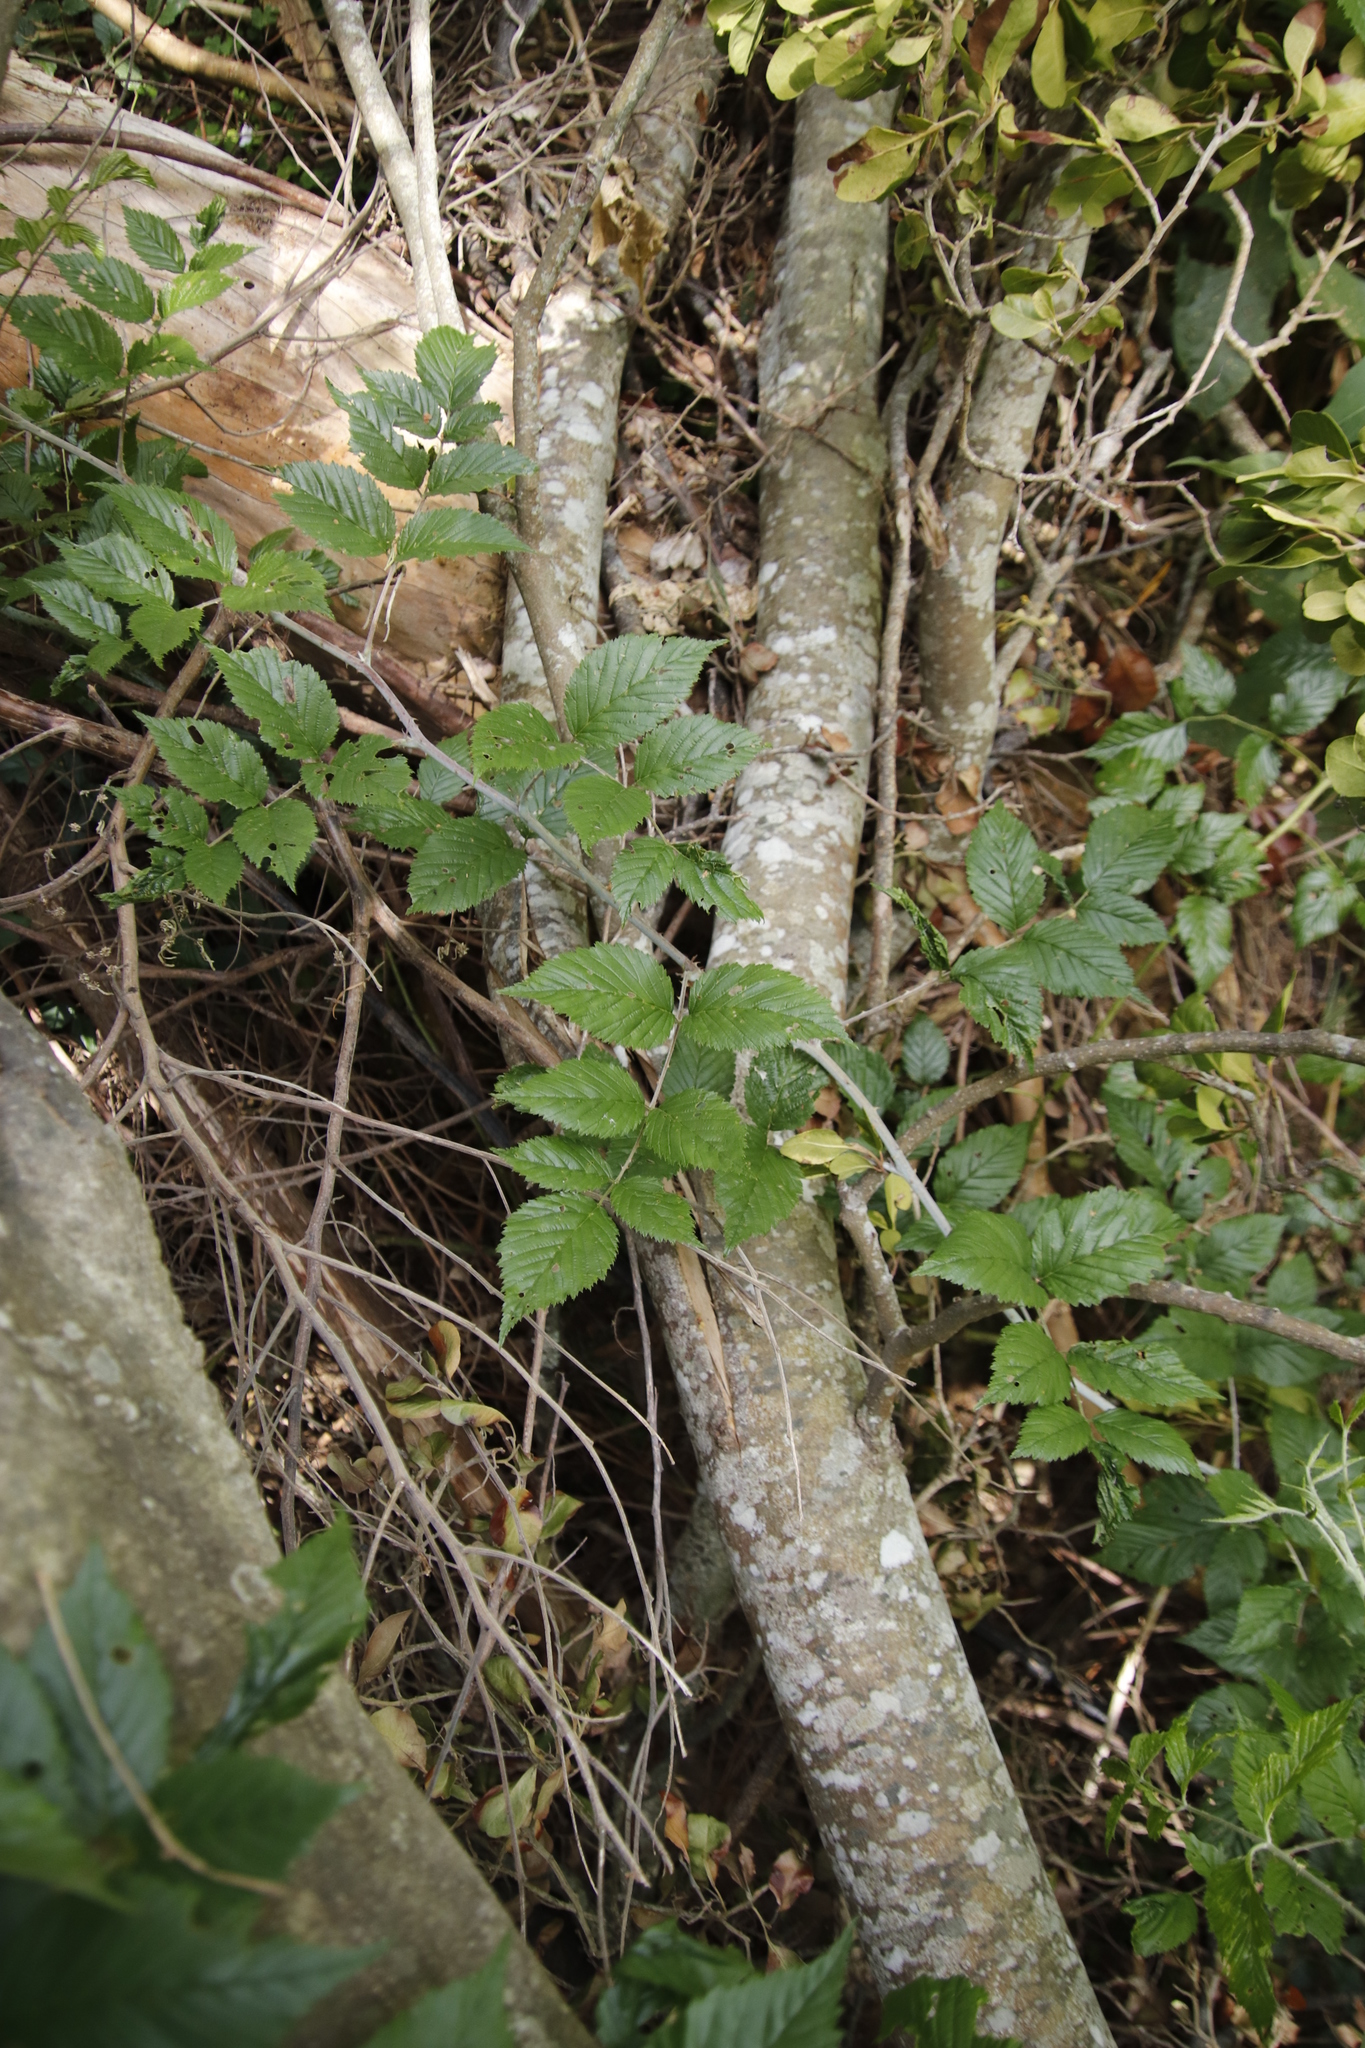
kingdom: Plantae
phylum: Tracheophyta
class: Magnoliopsida
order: Rosales
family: Rosaceae
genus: Rubus
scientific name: Rubus pinnatus
